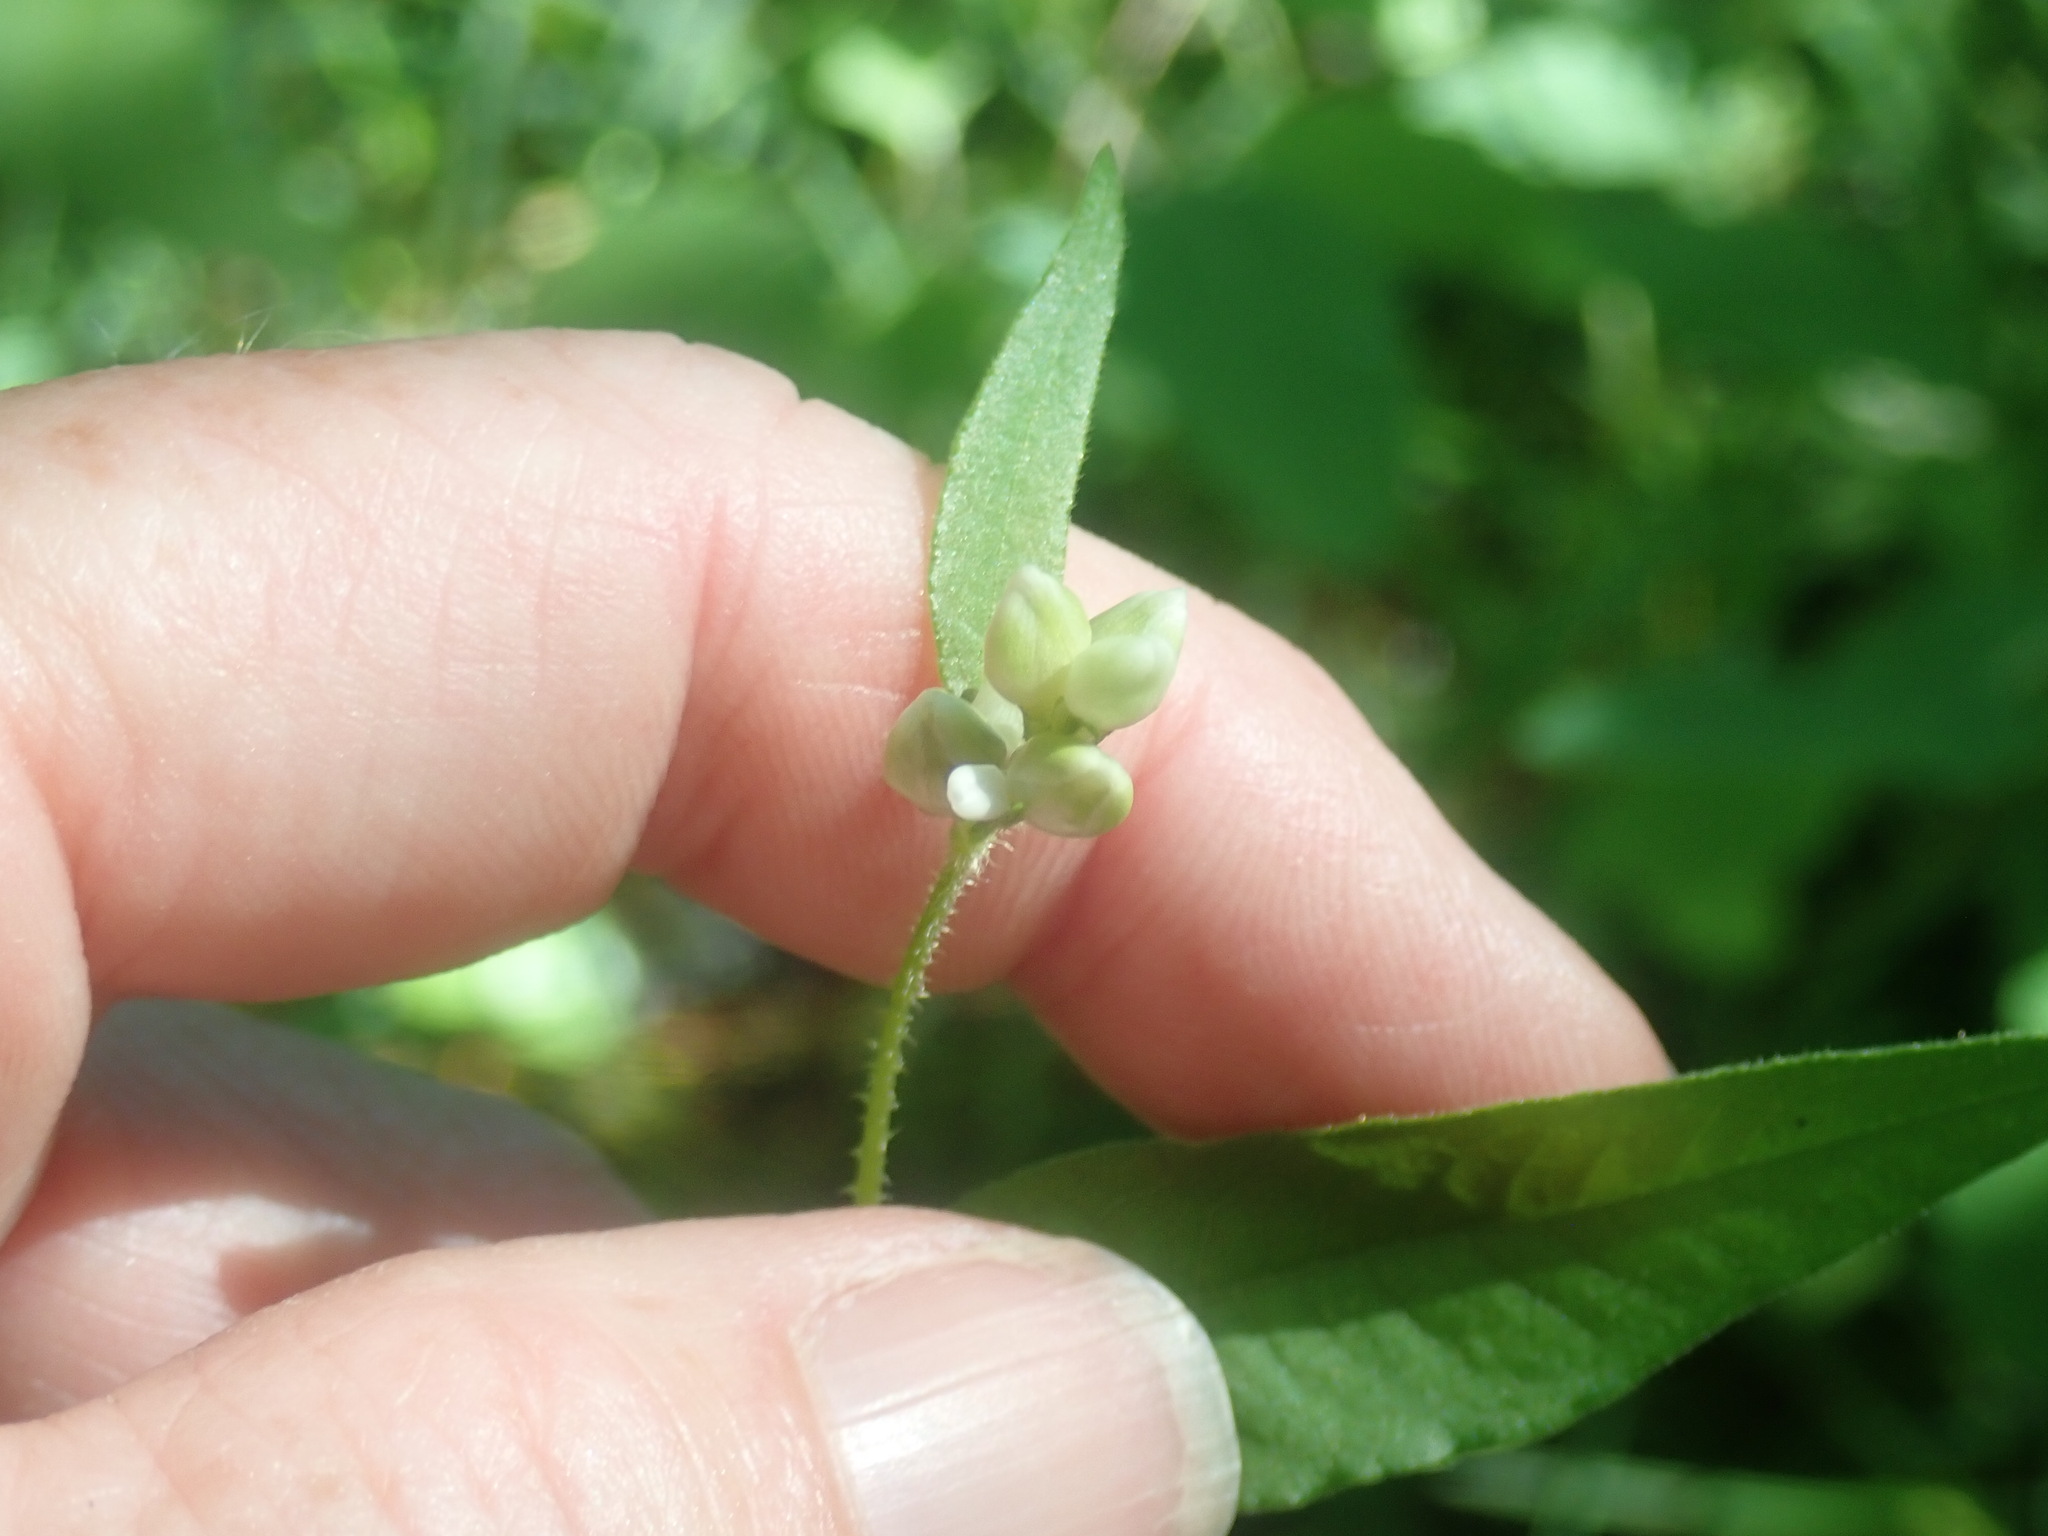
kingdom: Plantae
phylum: Tracheophyta
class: Magnoliopsida
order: Caryophyllales
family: Polygonaceae
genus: Persicaria
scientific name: Persicaria arifolia
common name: Halberd-leaved tear-thumb
